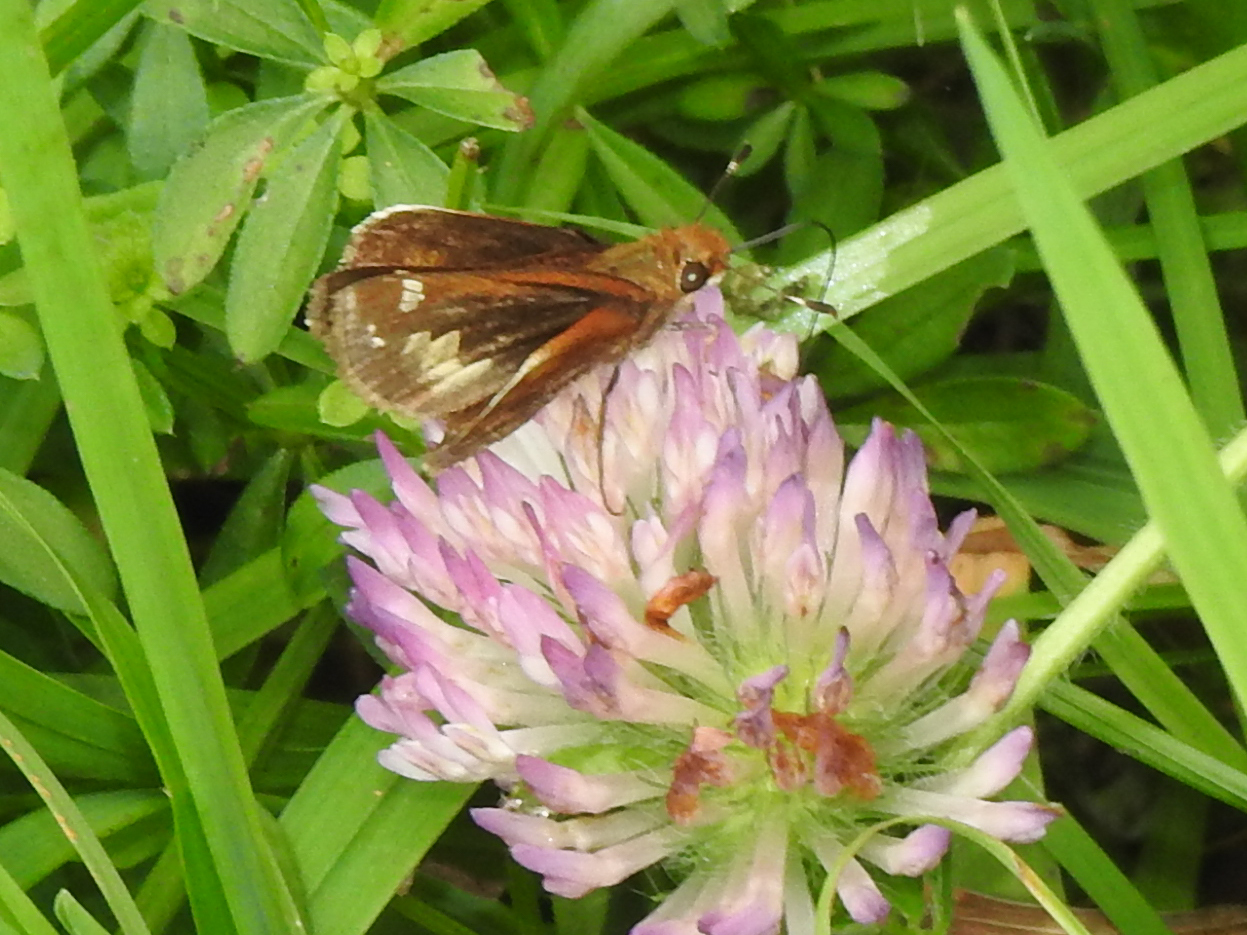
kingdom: Animalia
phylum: Arthropoda
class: Insecta
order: Lepidoptera
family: Hesperiidae
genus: Lon
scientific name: Lon zabulon
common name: Zabulon skipper
